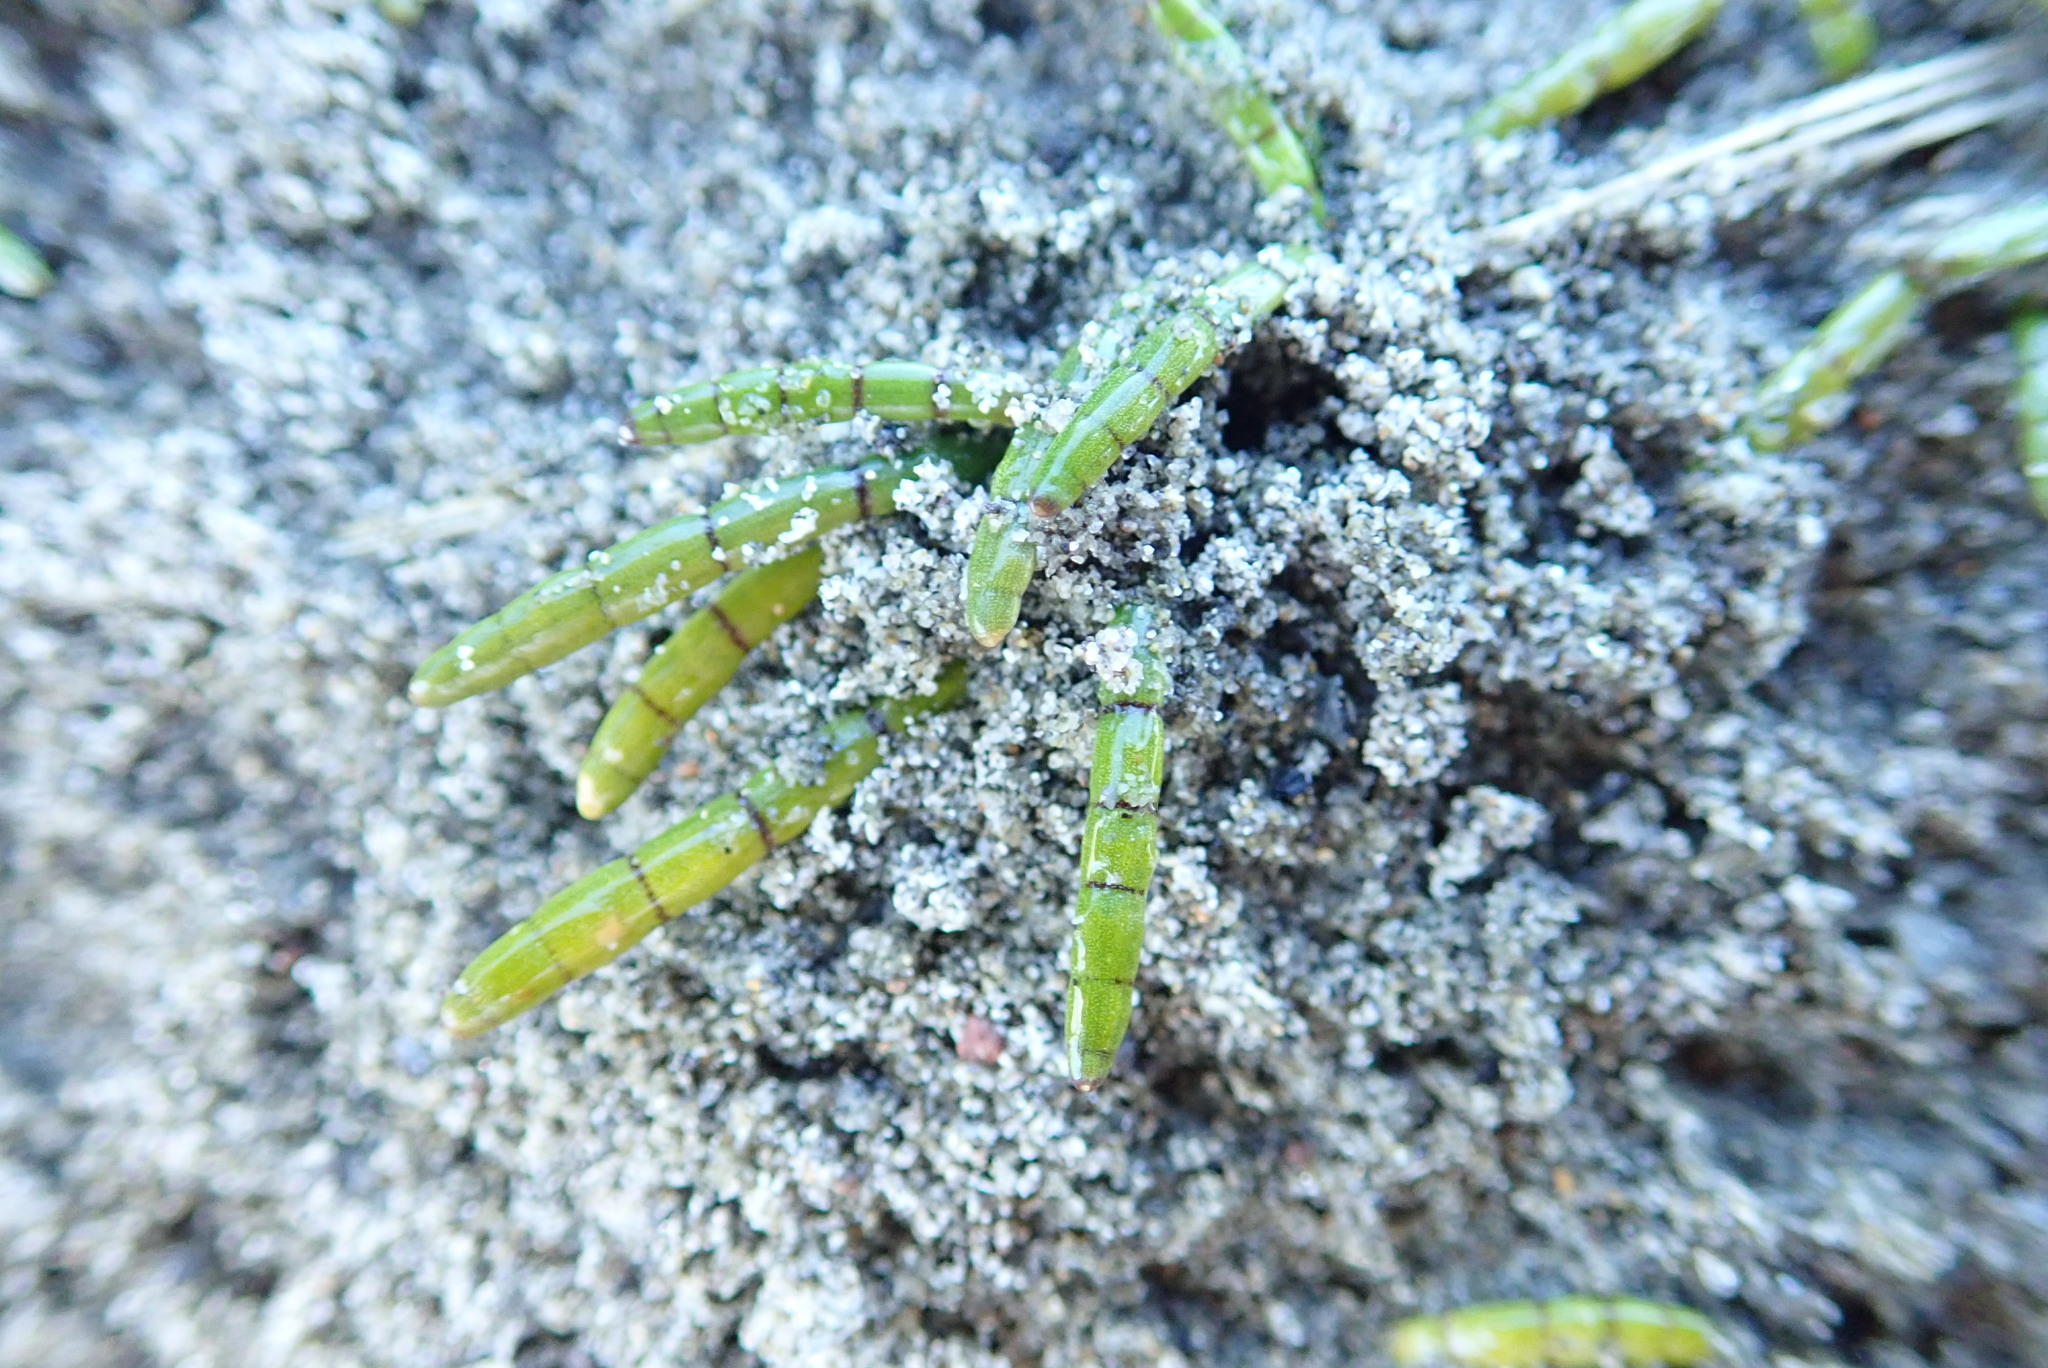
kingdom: Plantae
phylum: Tracheophyta
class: Magnoliopsida
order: Apiales
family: Apiaceae
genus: Lilaeopsis
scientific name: Lilaeopsis novae-zelandiae
